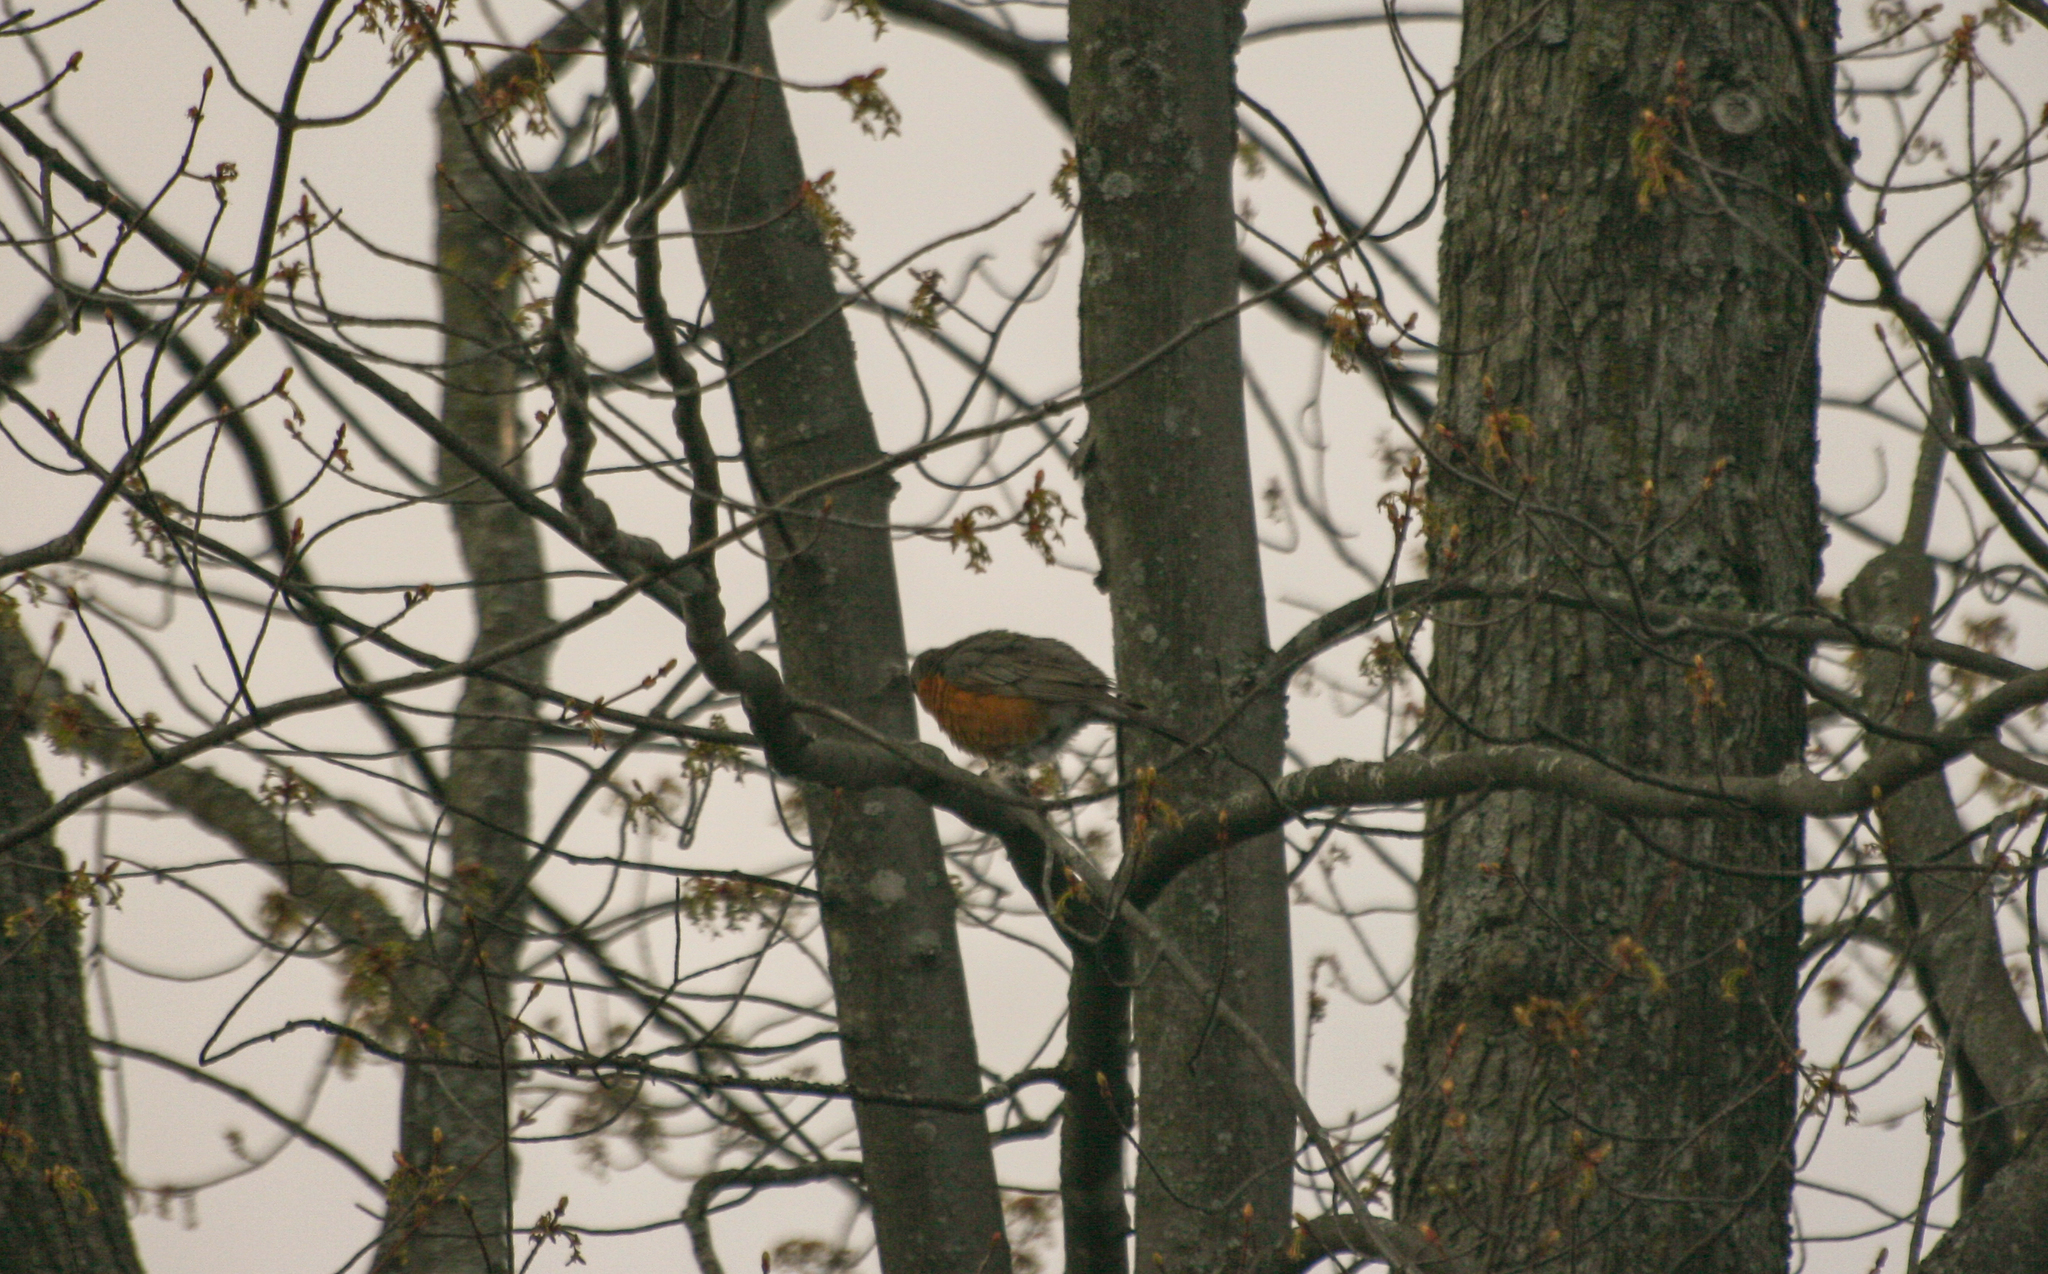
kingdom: Animalia
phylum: Chordata
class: Aves
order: Passeriformes
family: Turdidae
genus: Turdus
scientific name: Turdus migratorius
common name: American robin
